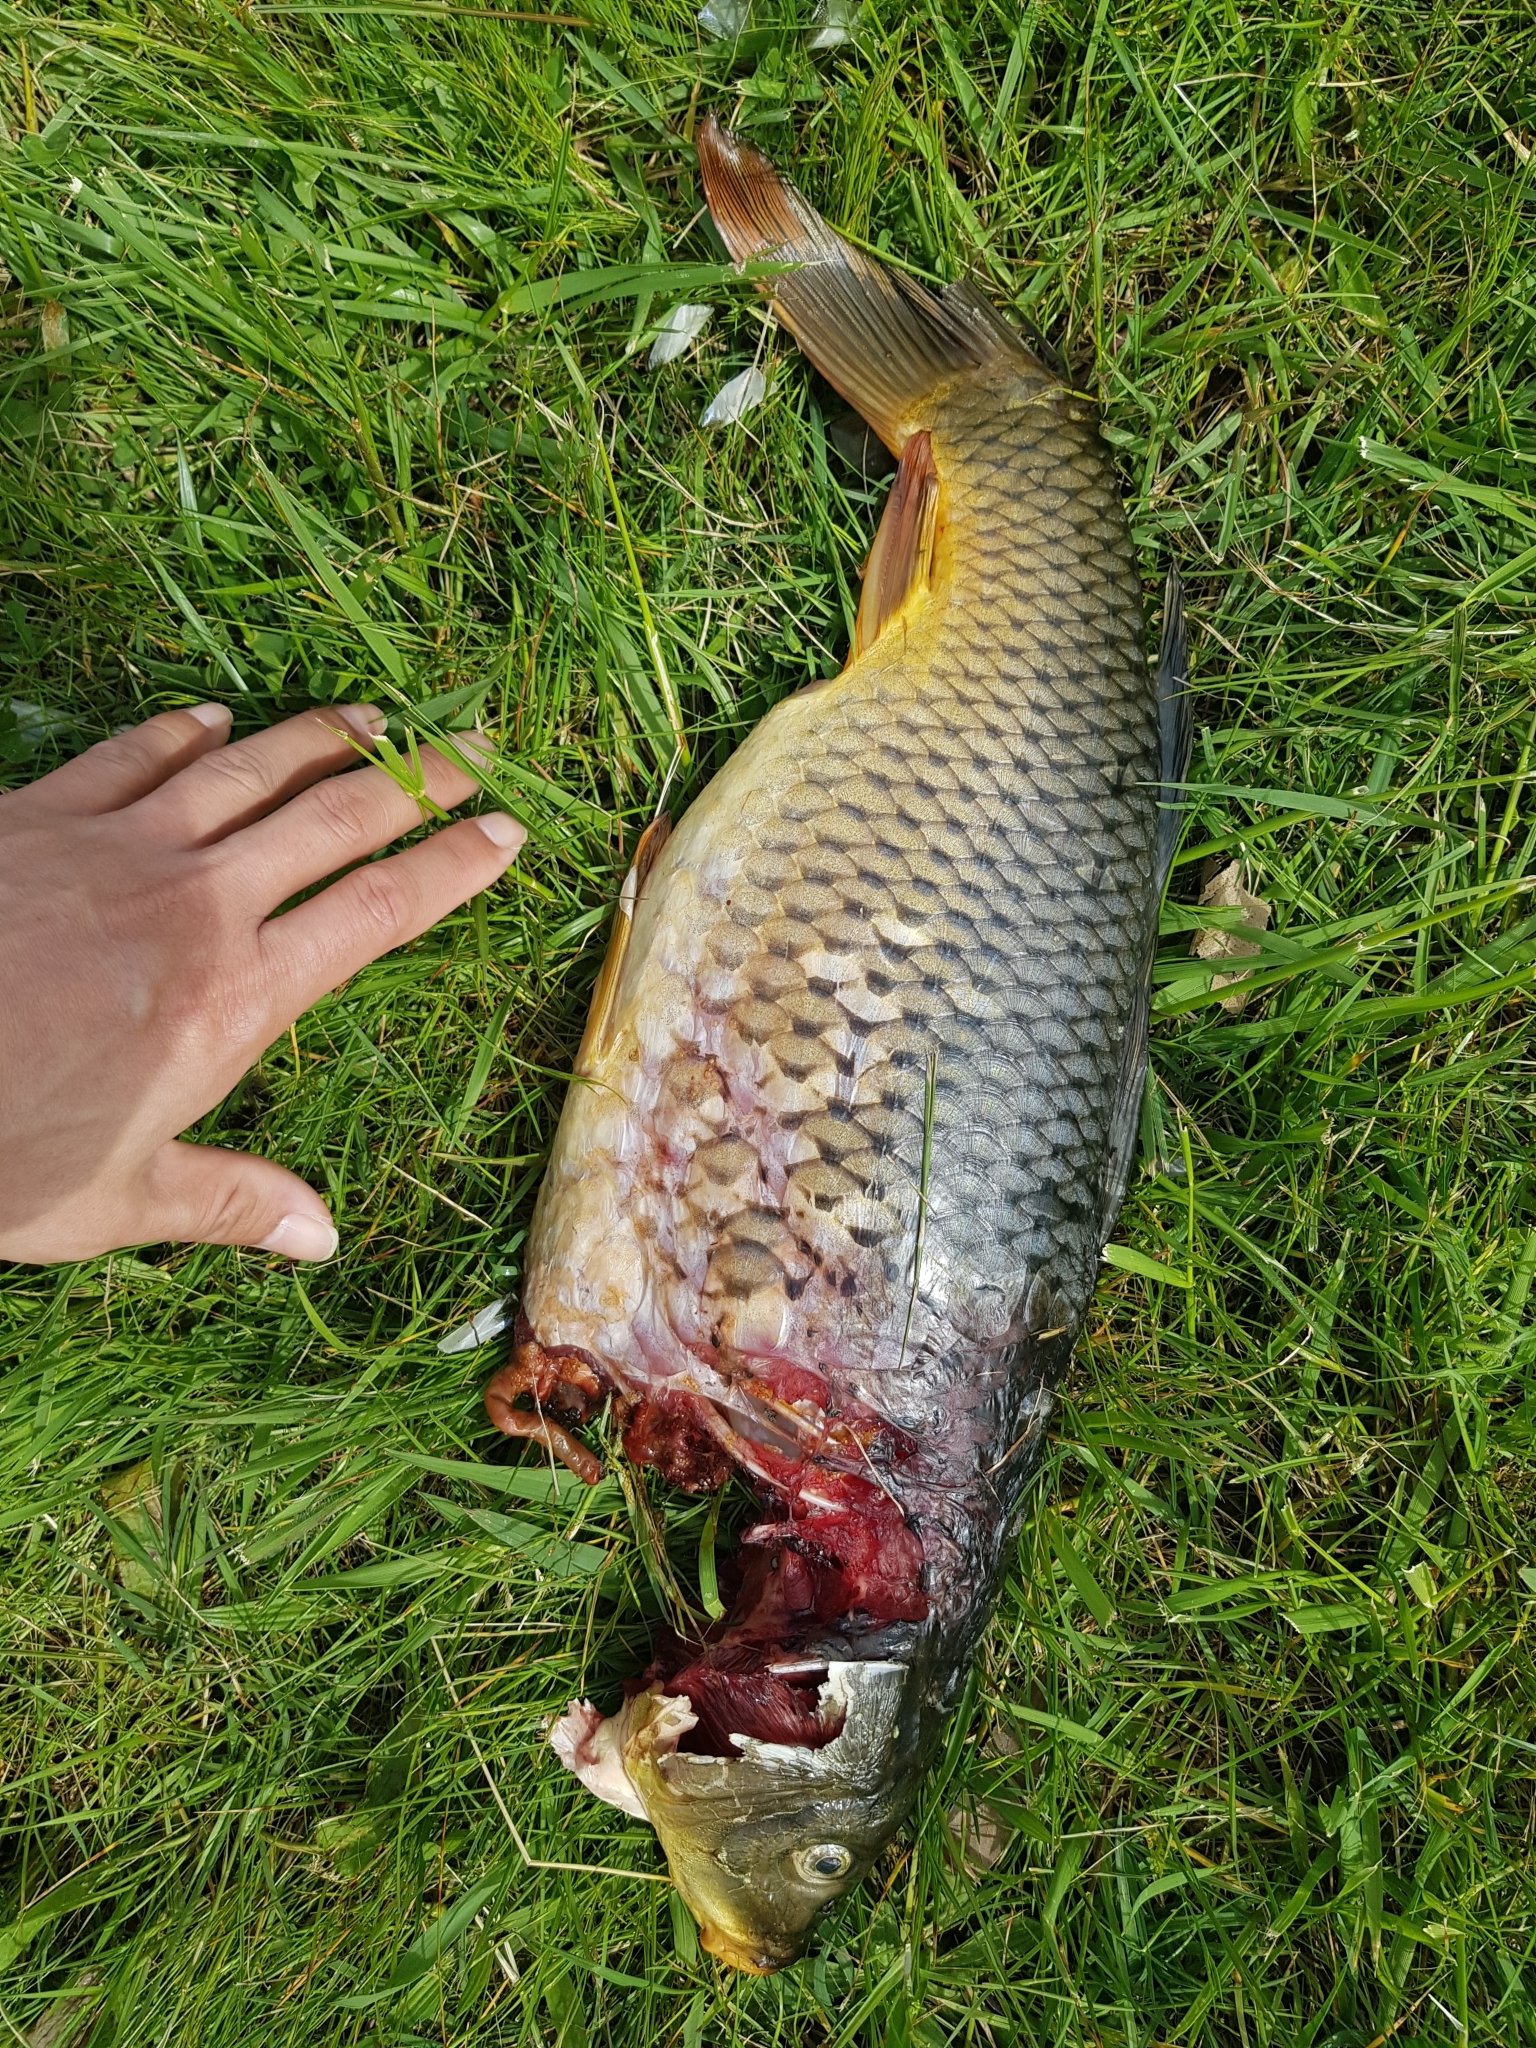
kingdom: Animalia
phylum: Chordata
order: Cypriniformes
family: Cyprinidae
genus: Cyprinus
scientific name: Cyprinus carpio
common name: Common carp
